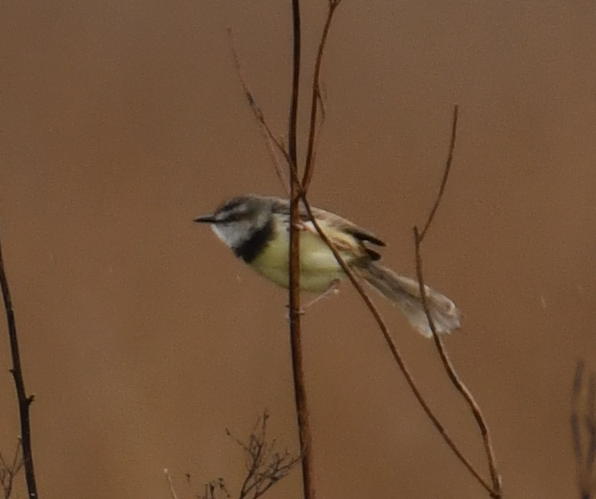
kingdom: Animalia
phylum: Chordata
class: Aves
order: Passeriformes
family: Cisticolidae
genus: Prinia
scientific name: Prinia flavicans
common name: Black-chested prinia
